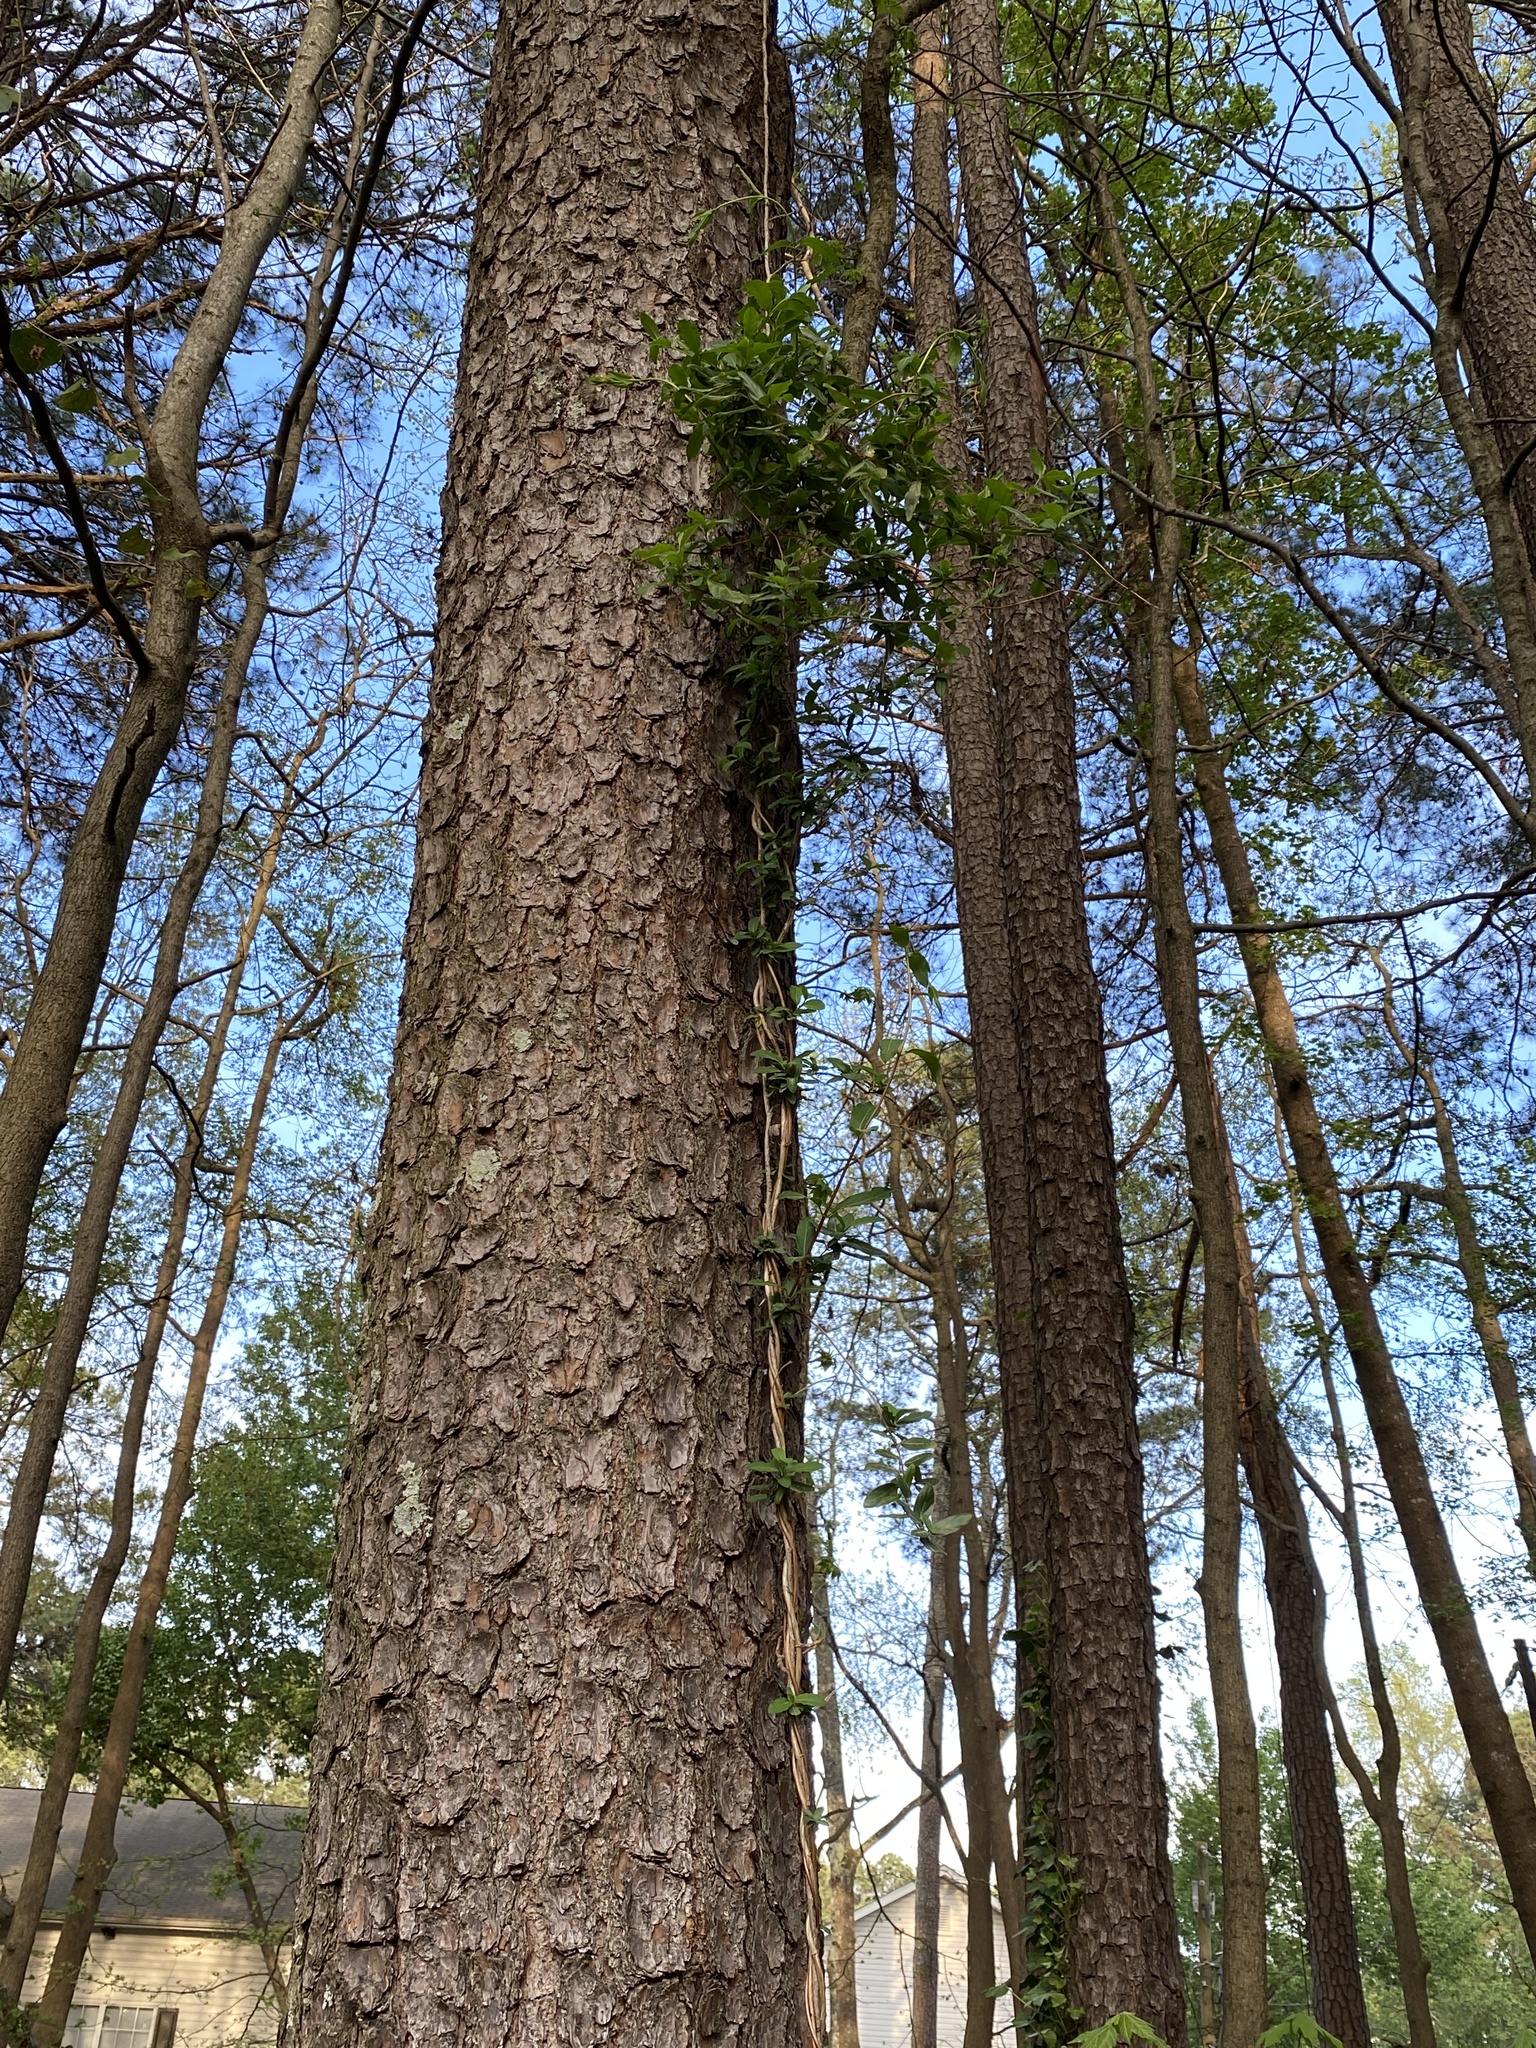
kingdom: Plantae
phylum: Tracheophyta
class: Magnoliopsida
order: Dipsacales
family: Caprifoliaceae
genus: Lonicera
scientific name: Lonicera japonica
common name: Japanese honeysuckle
